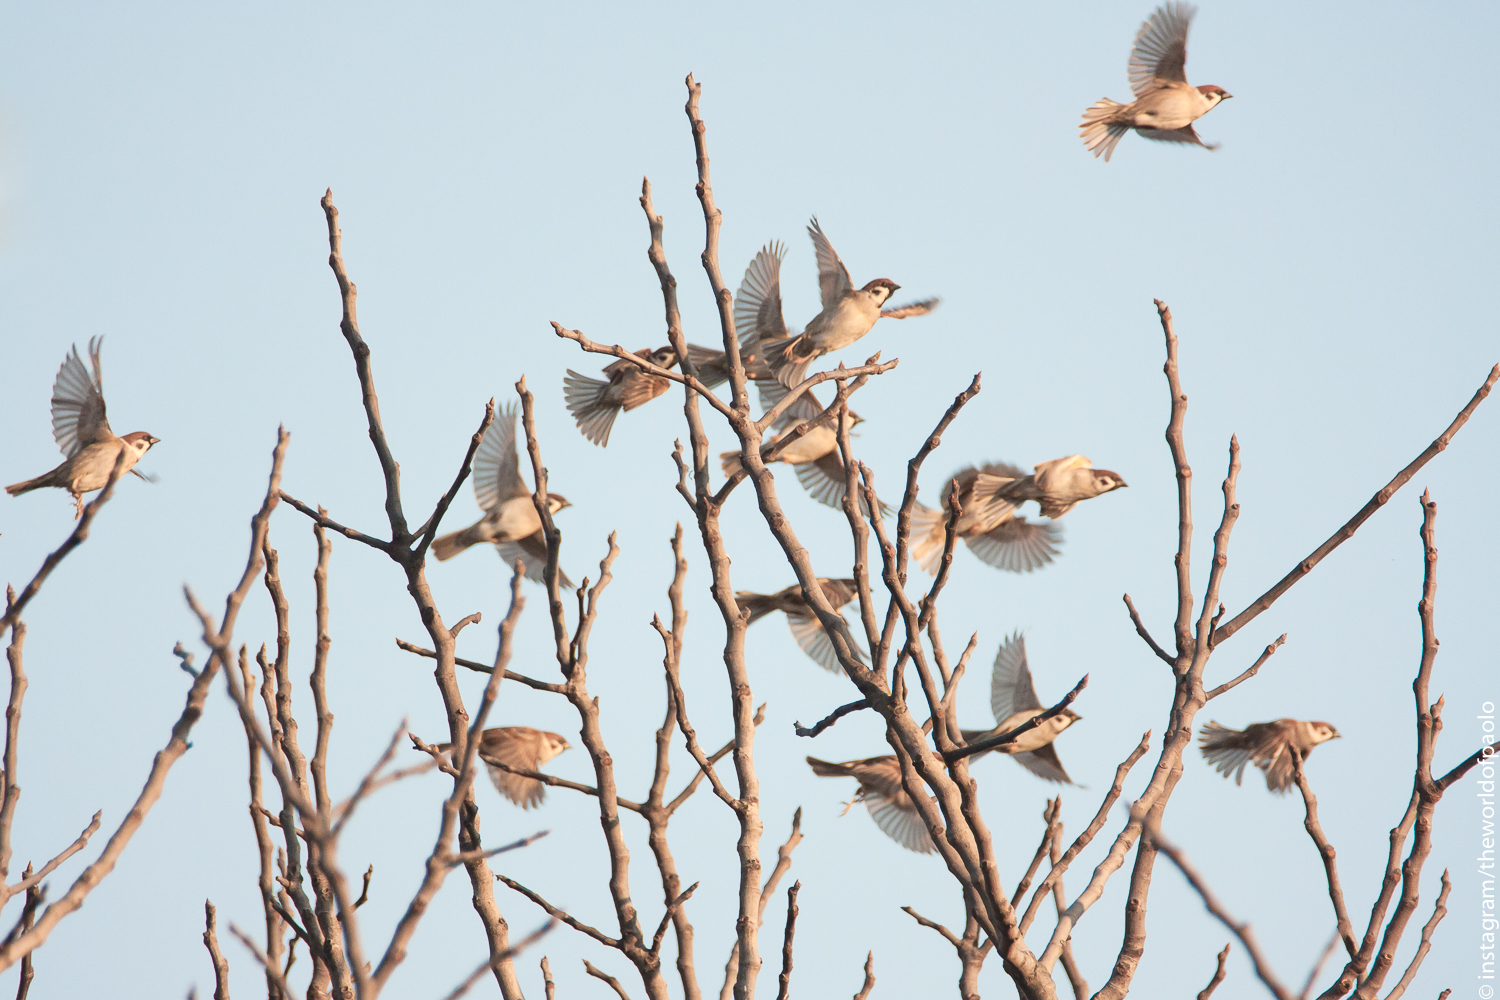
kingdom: Animalia
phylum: Chordata
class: Aves
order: Passeriformes
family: Passeridae
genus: Passer
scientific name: Passer montanus
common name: Eurasian tree sparrow
